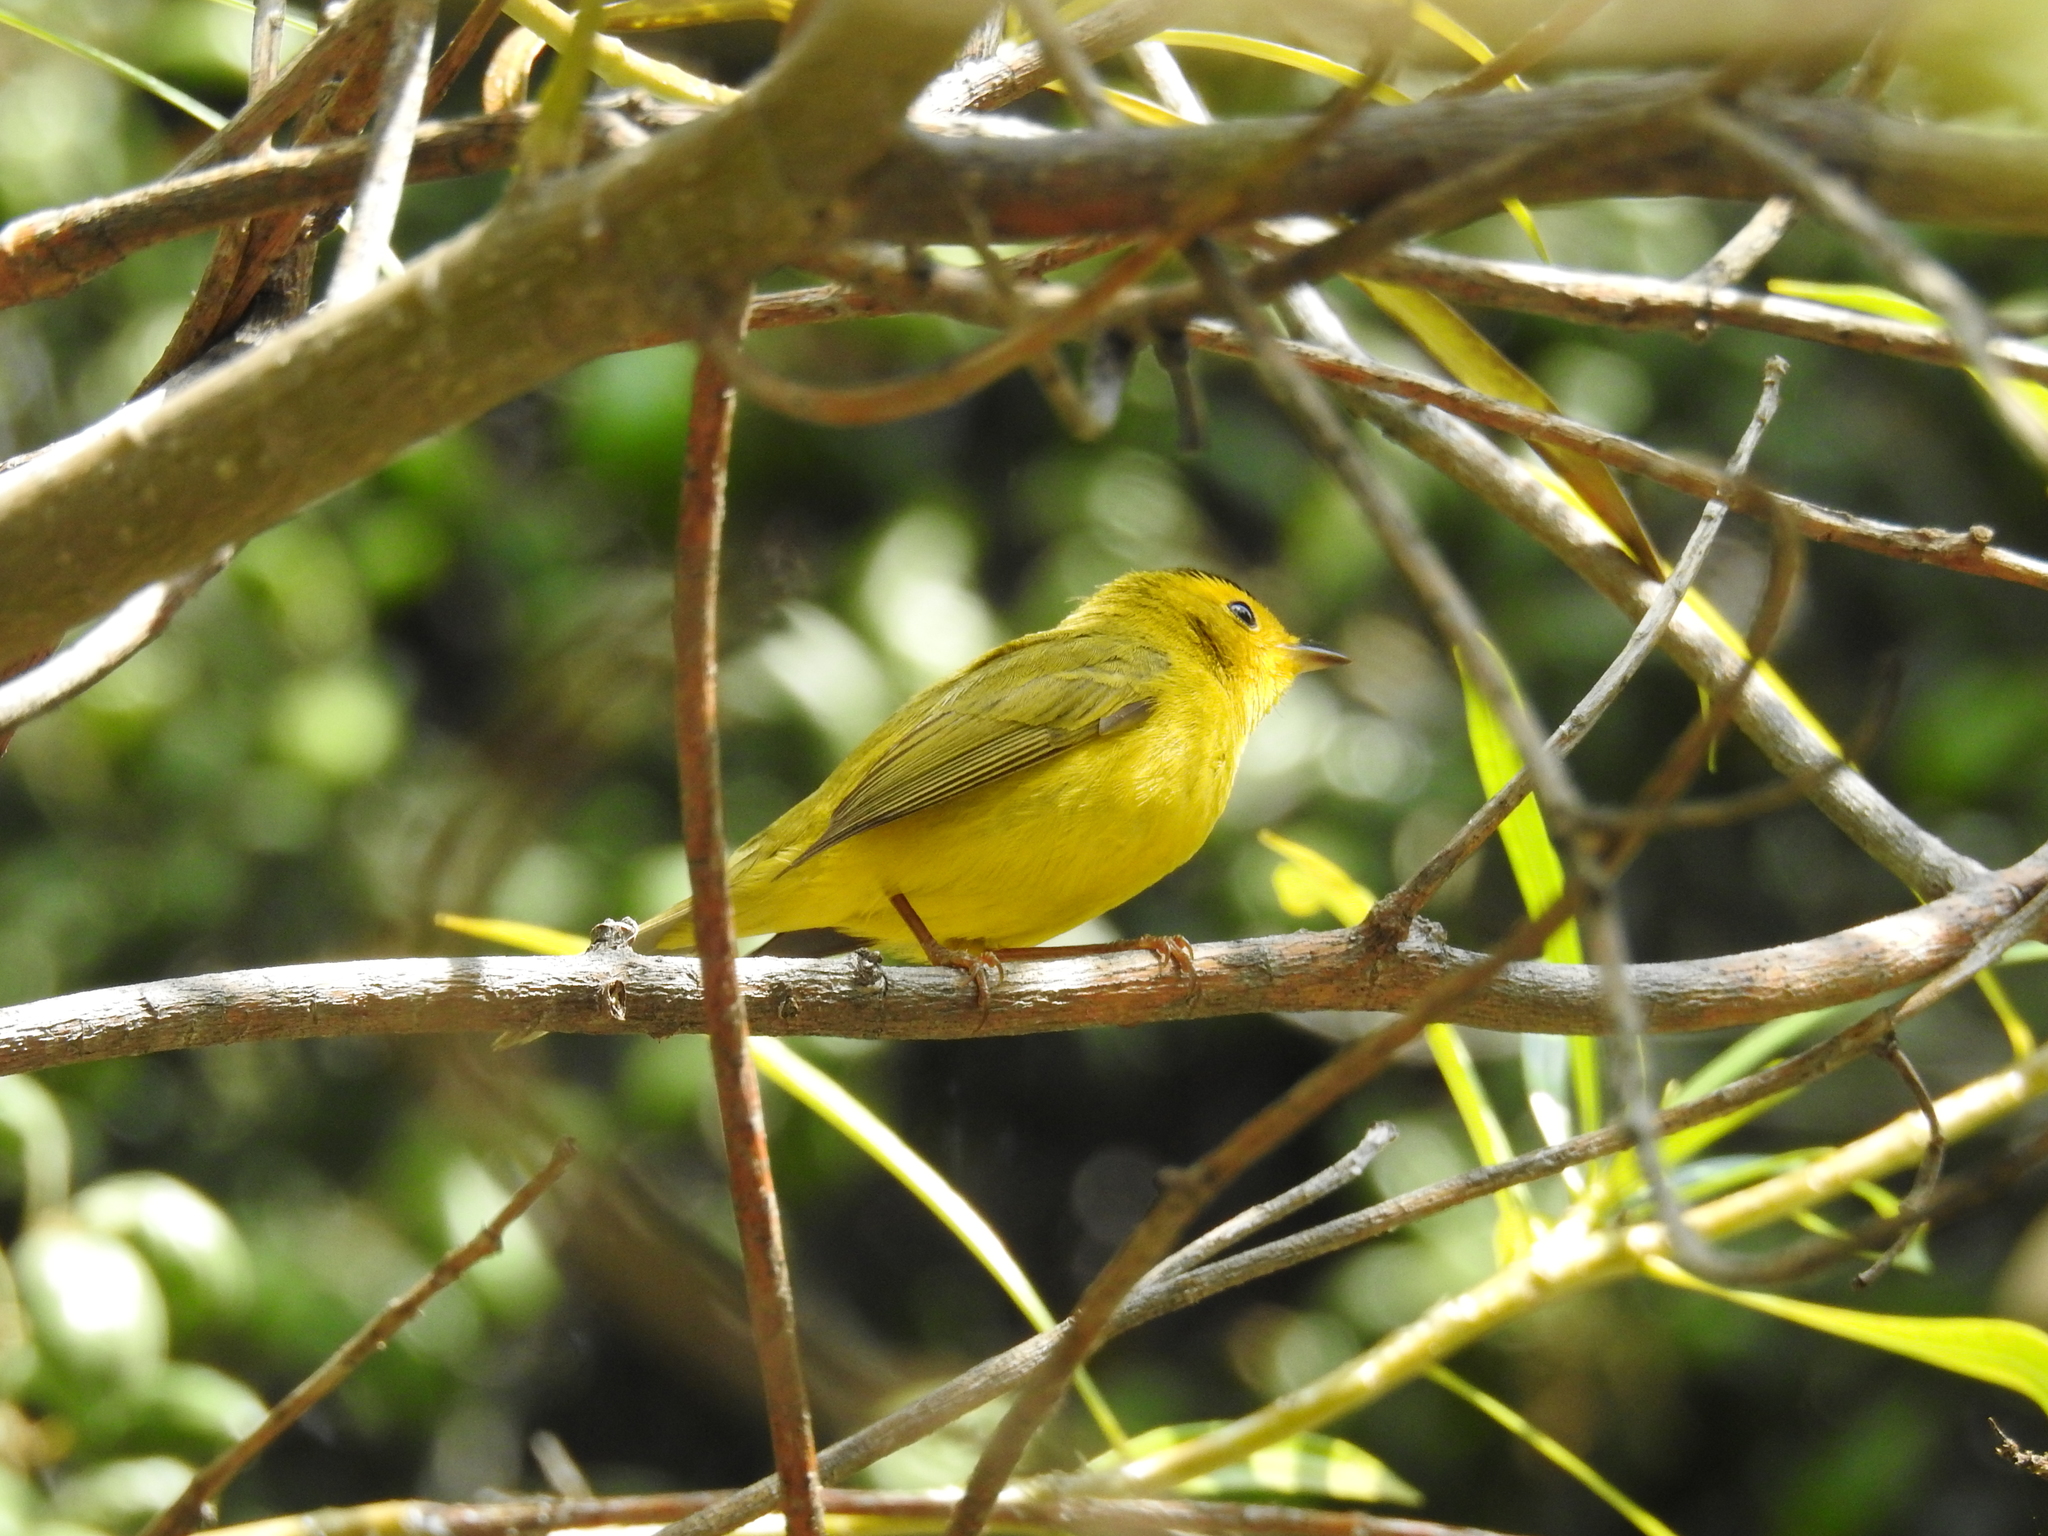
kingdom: Animalia
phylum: Chordata
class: Aves
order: Passeriformes
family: Parulidae
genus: Cardellina
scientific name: Cardellina pusilla
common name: Wilson's warbler
